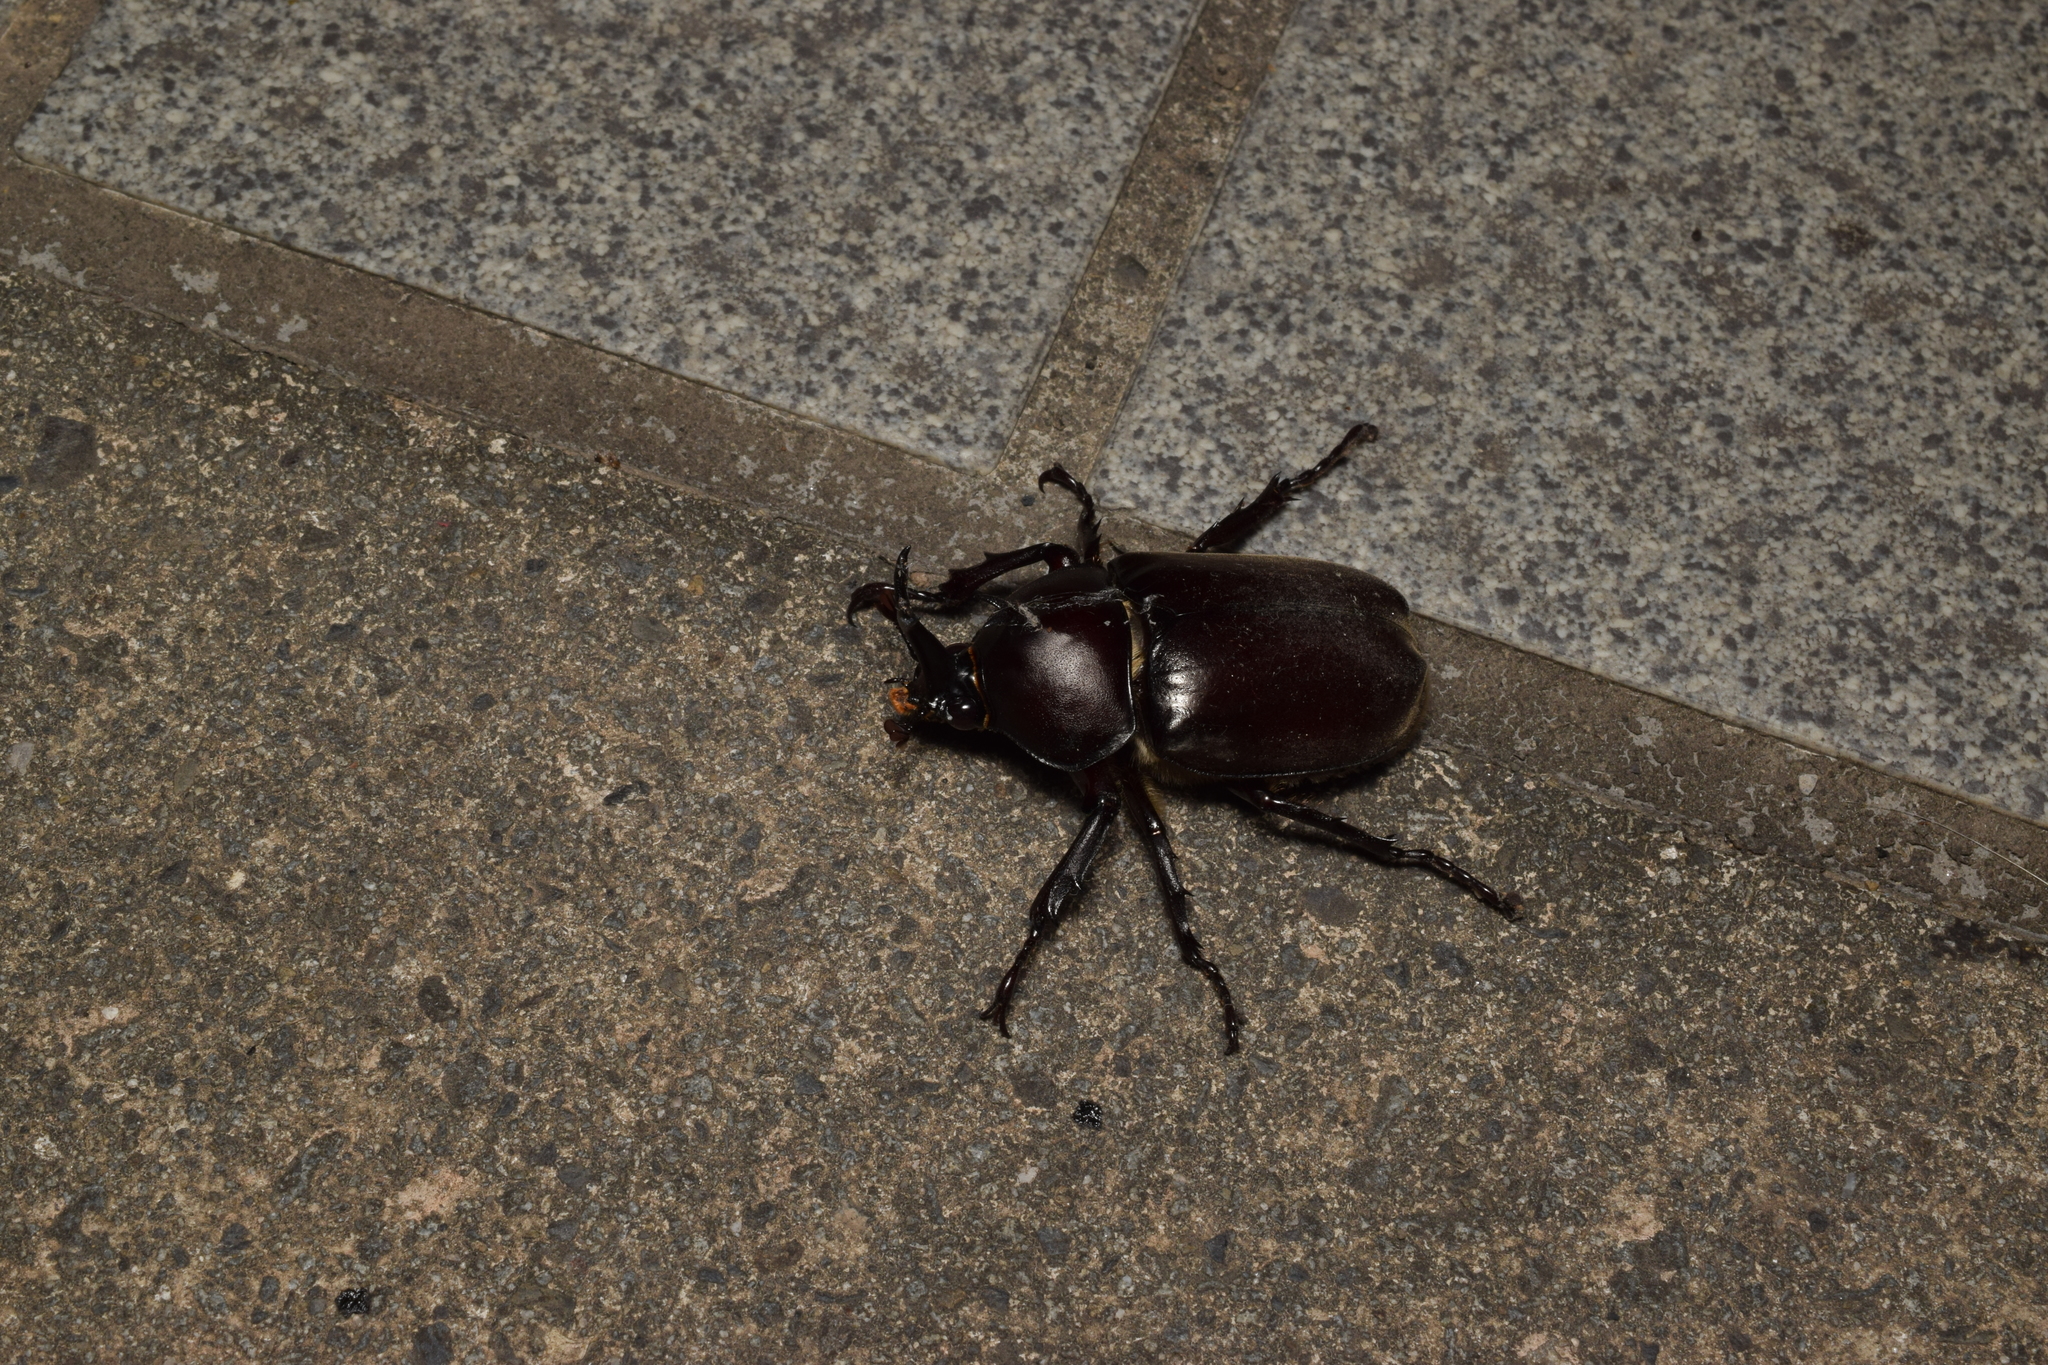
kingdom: Animalia
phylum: Arthropoda
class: Insecta
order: Coleoptera
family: Scarabaeidae
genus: Trypoxylus
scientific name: Trypoxylus dichotomus
